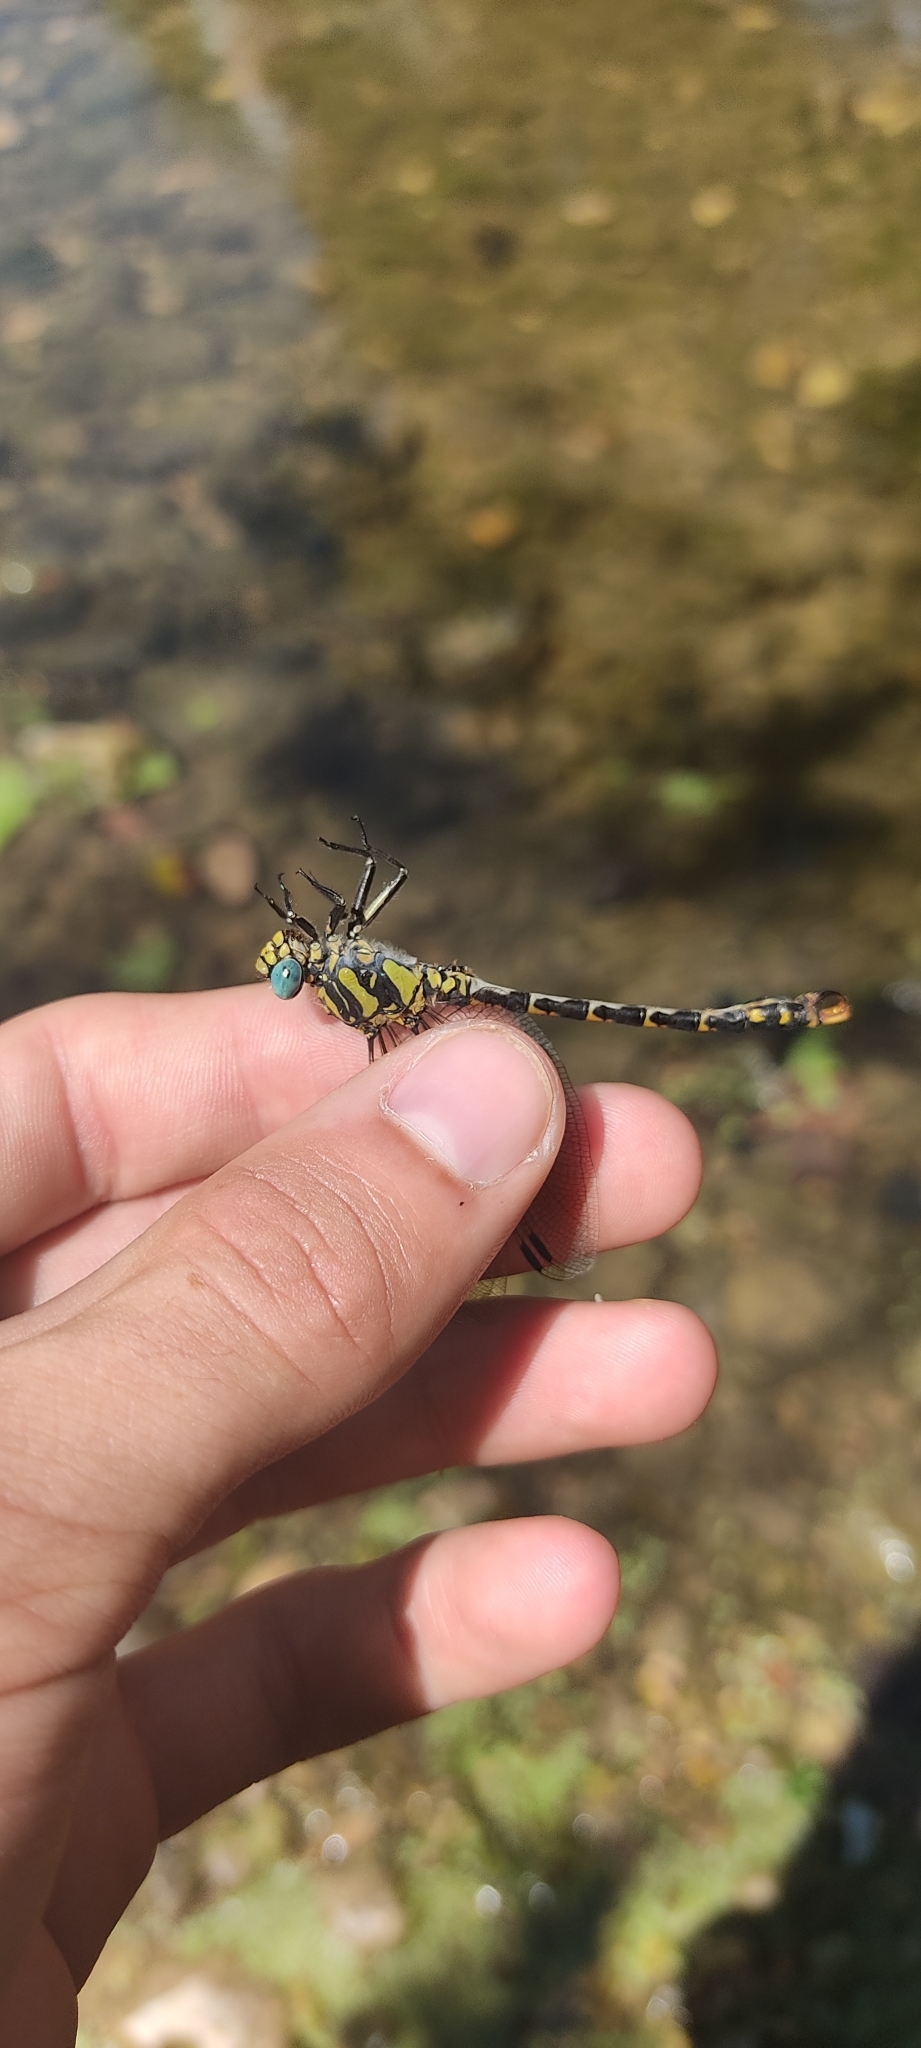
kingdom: Animalia
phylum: Arthropoda
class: Insecta
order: Odonata
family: Gomphidae
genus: Onychogomphus
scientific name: Onychogomphus uncatus
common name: Large pincertail
